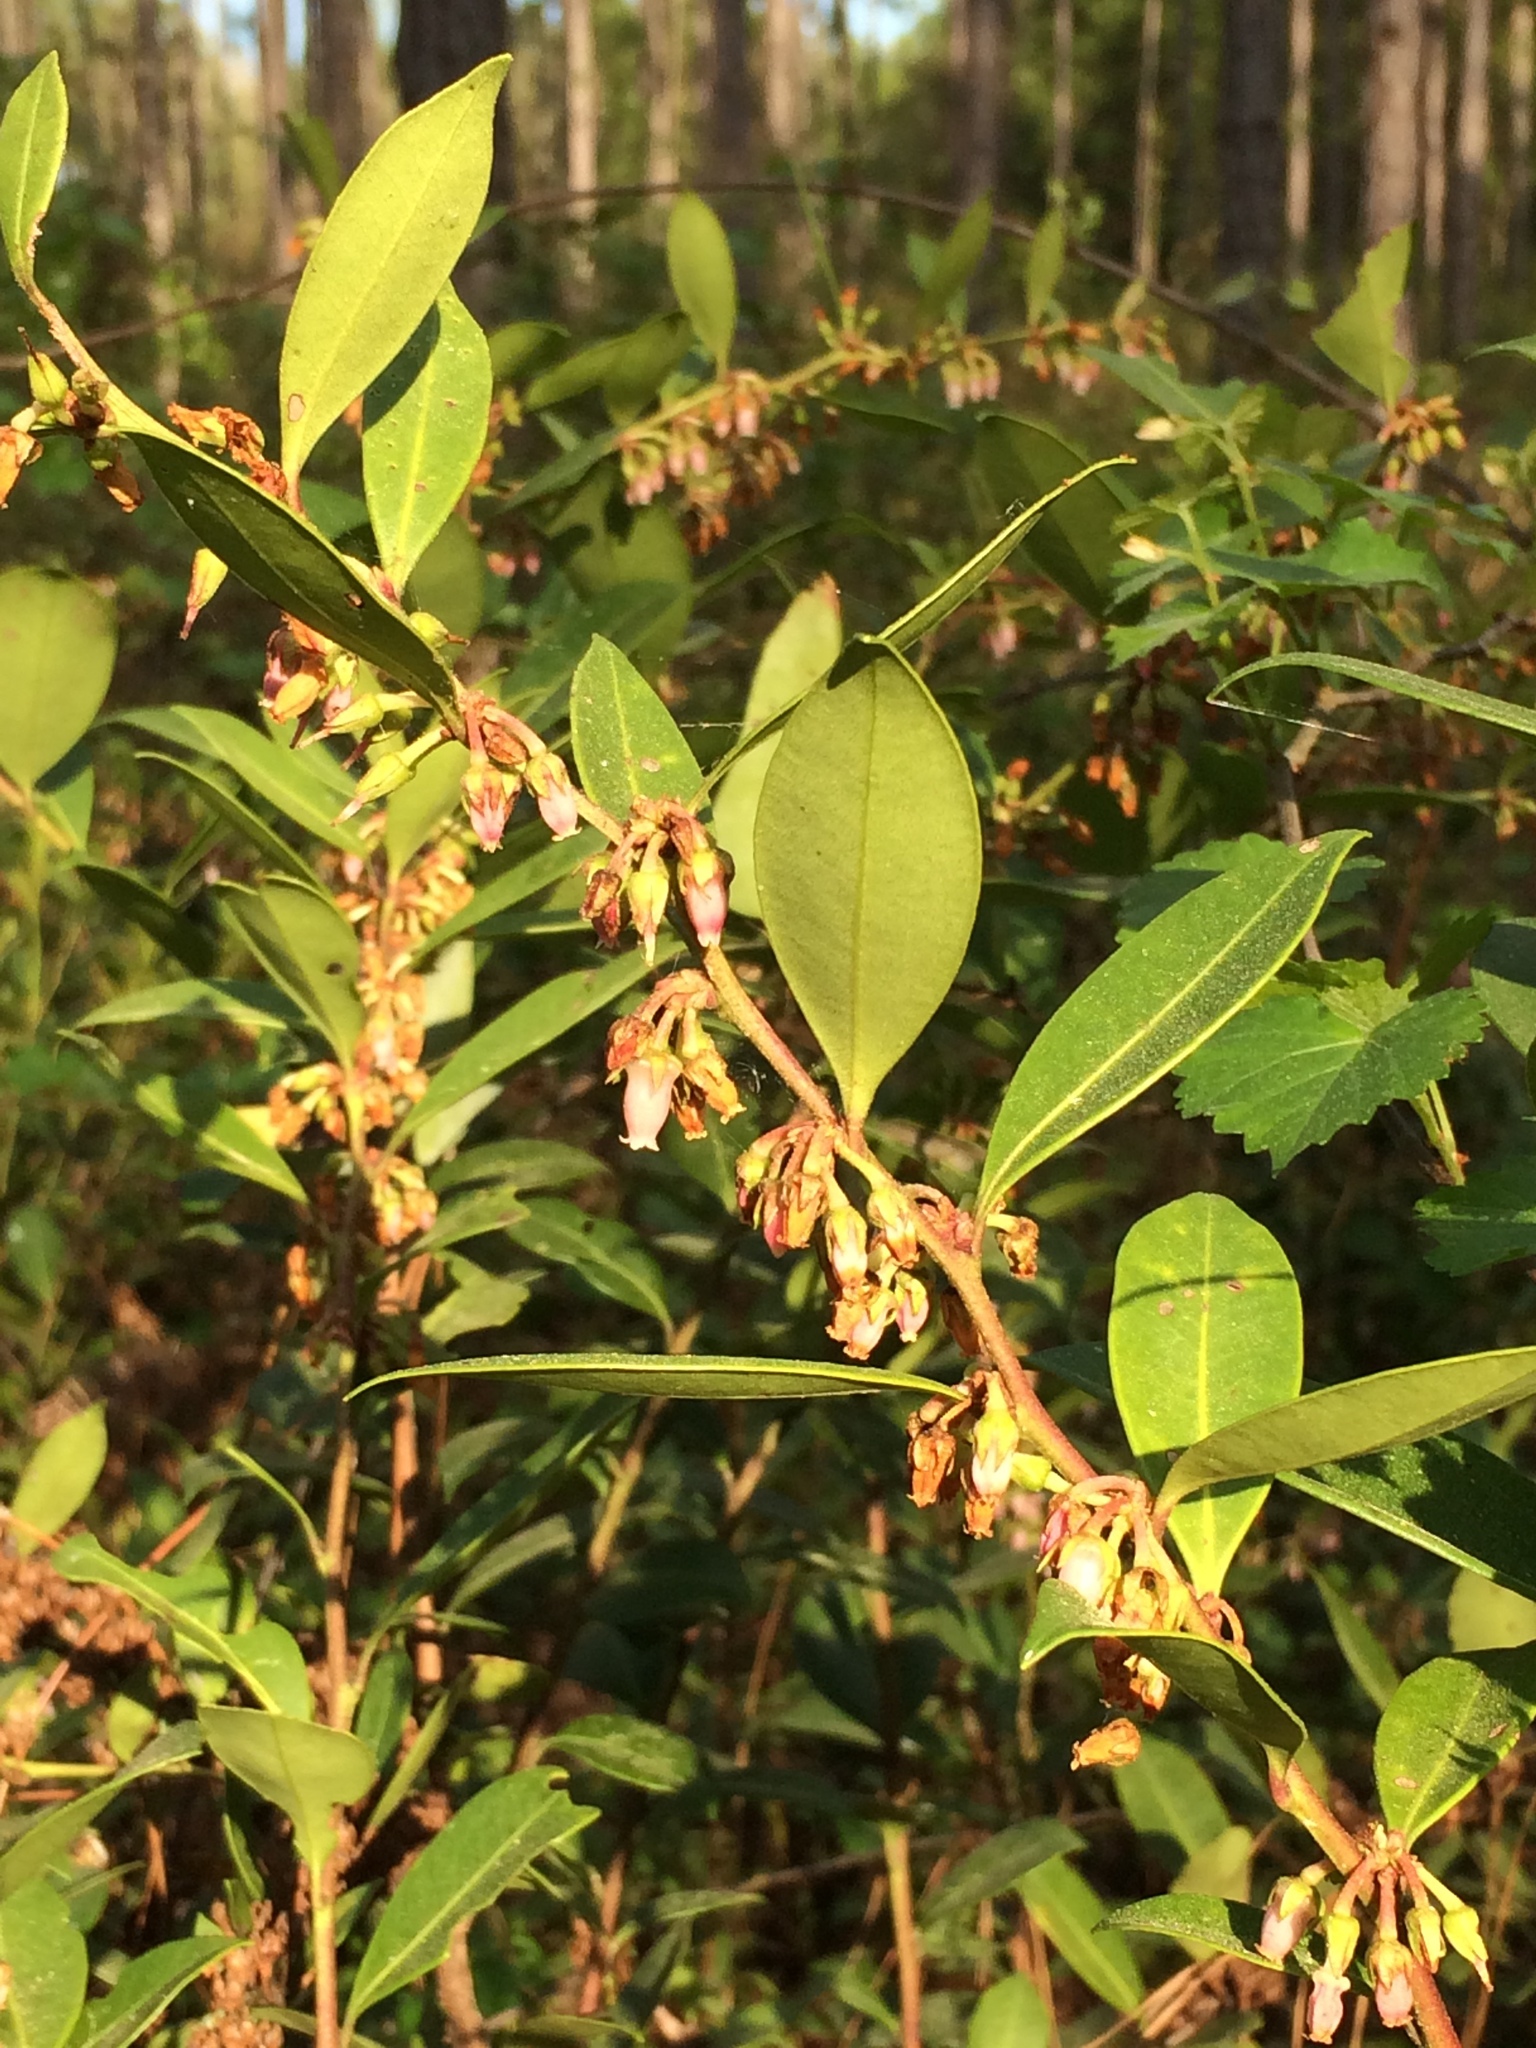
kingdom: Plantae
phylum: Tracheophyta
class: Magnoliopsida
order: Ericales
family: Ericaceae
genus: Lyonia
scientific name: Lyonia lucida
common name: Fetterbush
